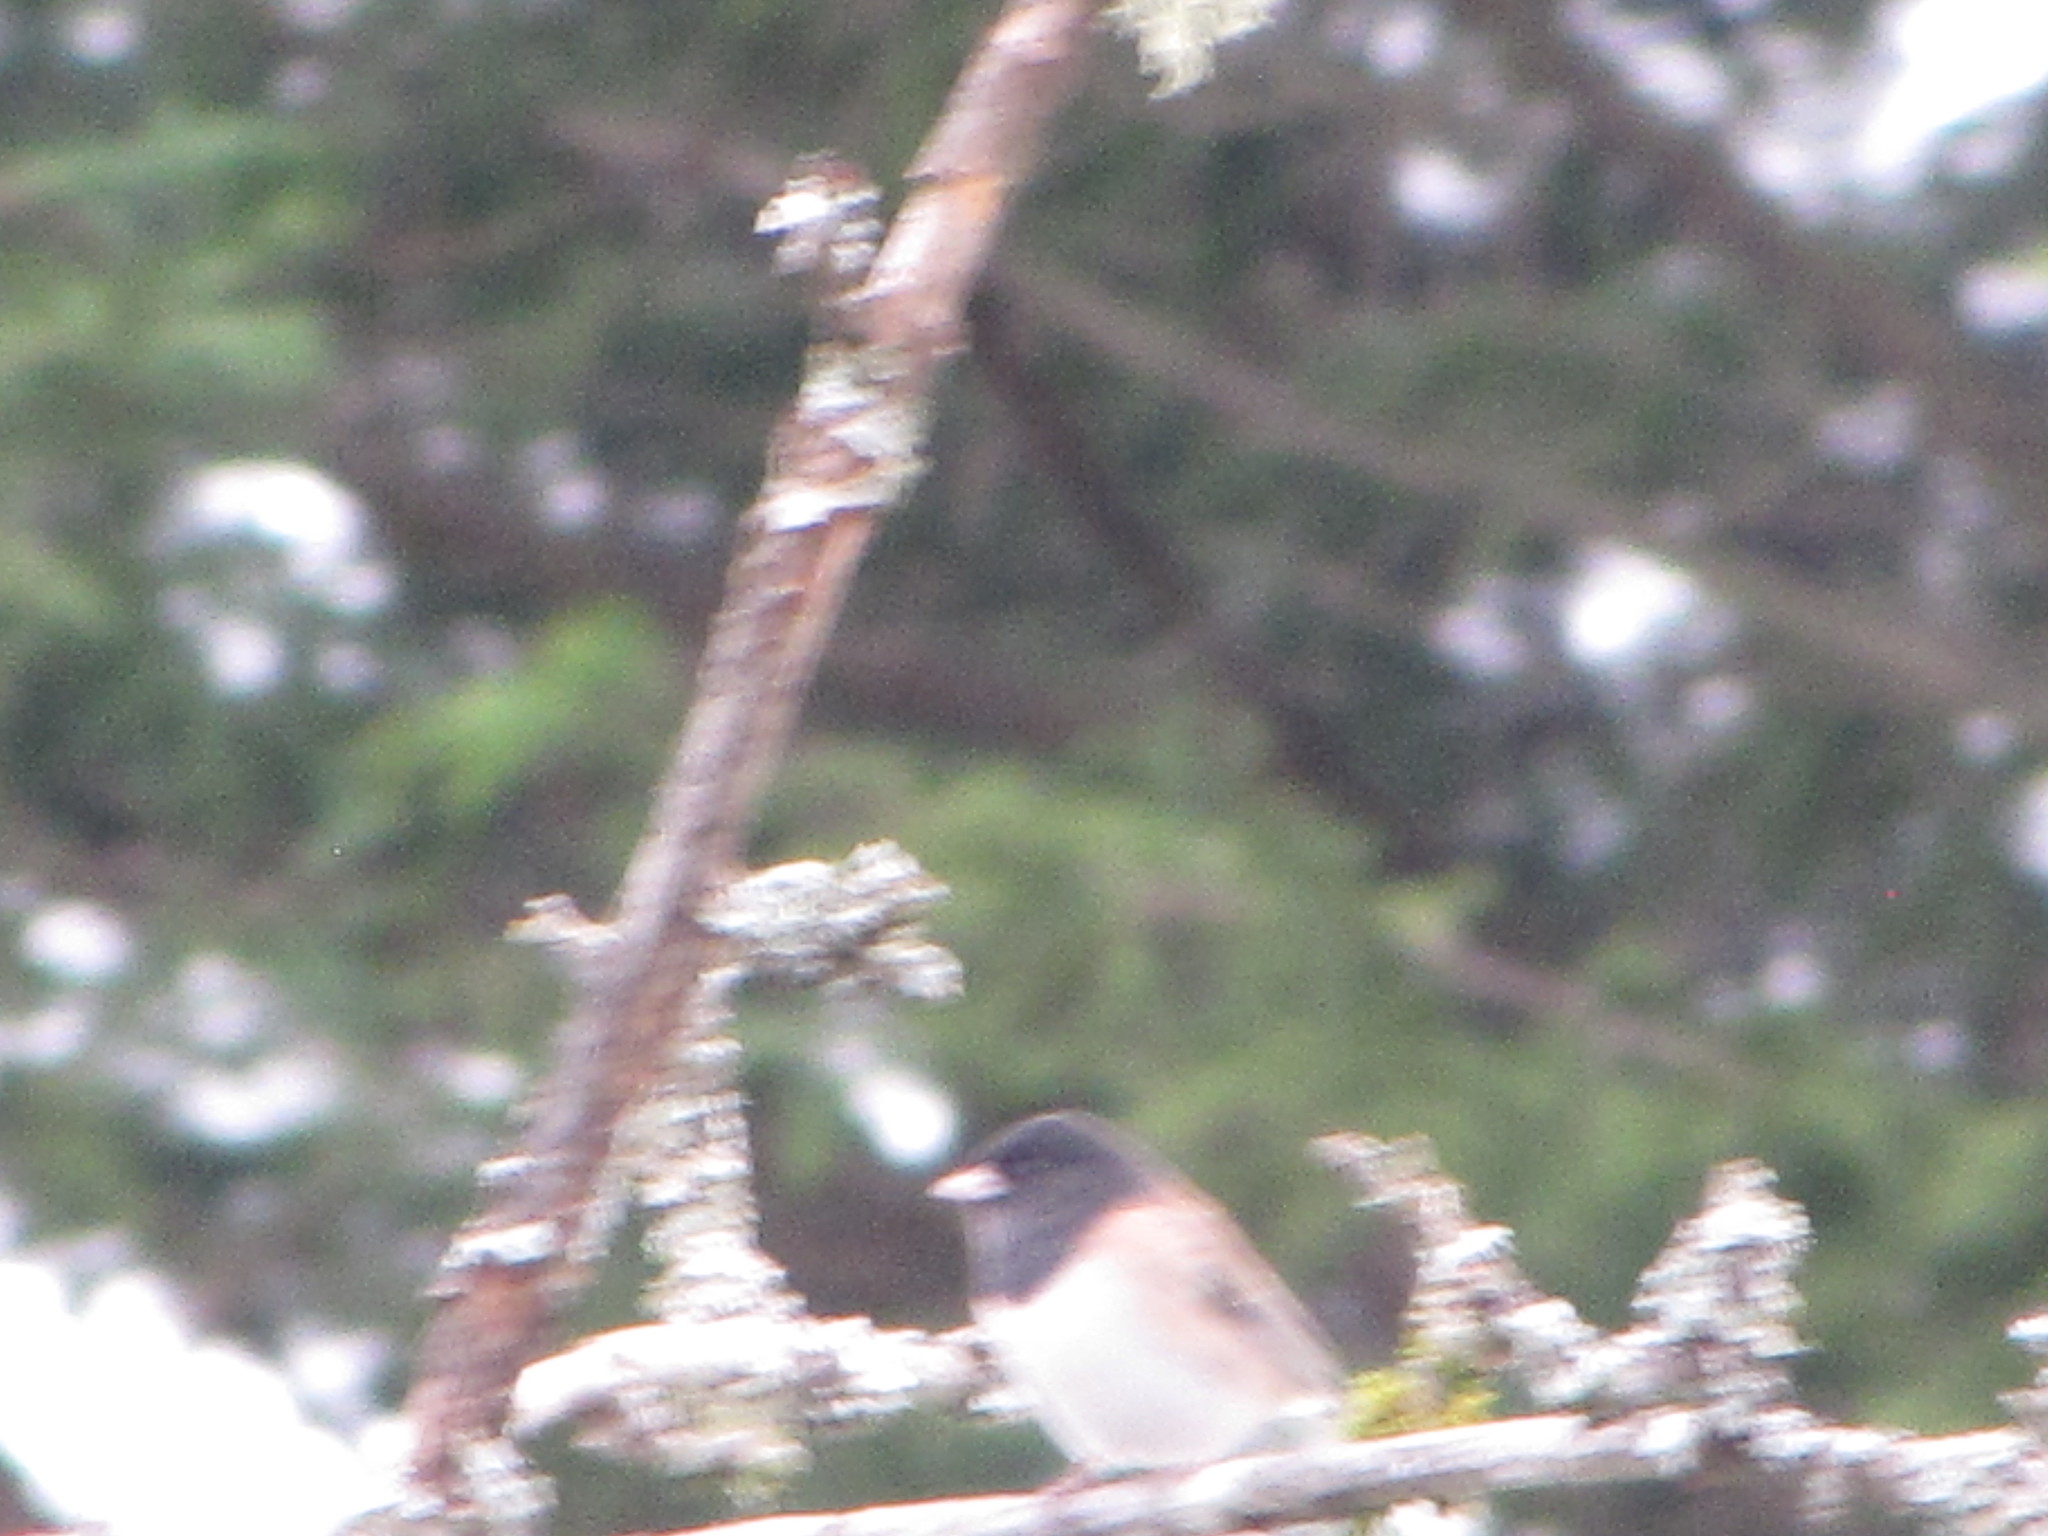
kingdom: Animalia
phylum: Chordata
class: Aves
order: Passeriformes
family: Passerellidae
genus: Junco
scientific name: Junco hyemalis
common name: Dark-eyed junco
